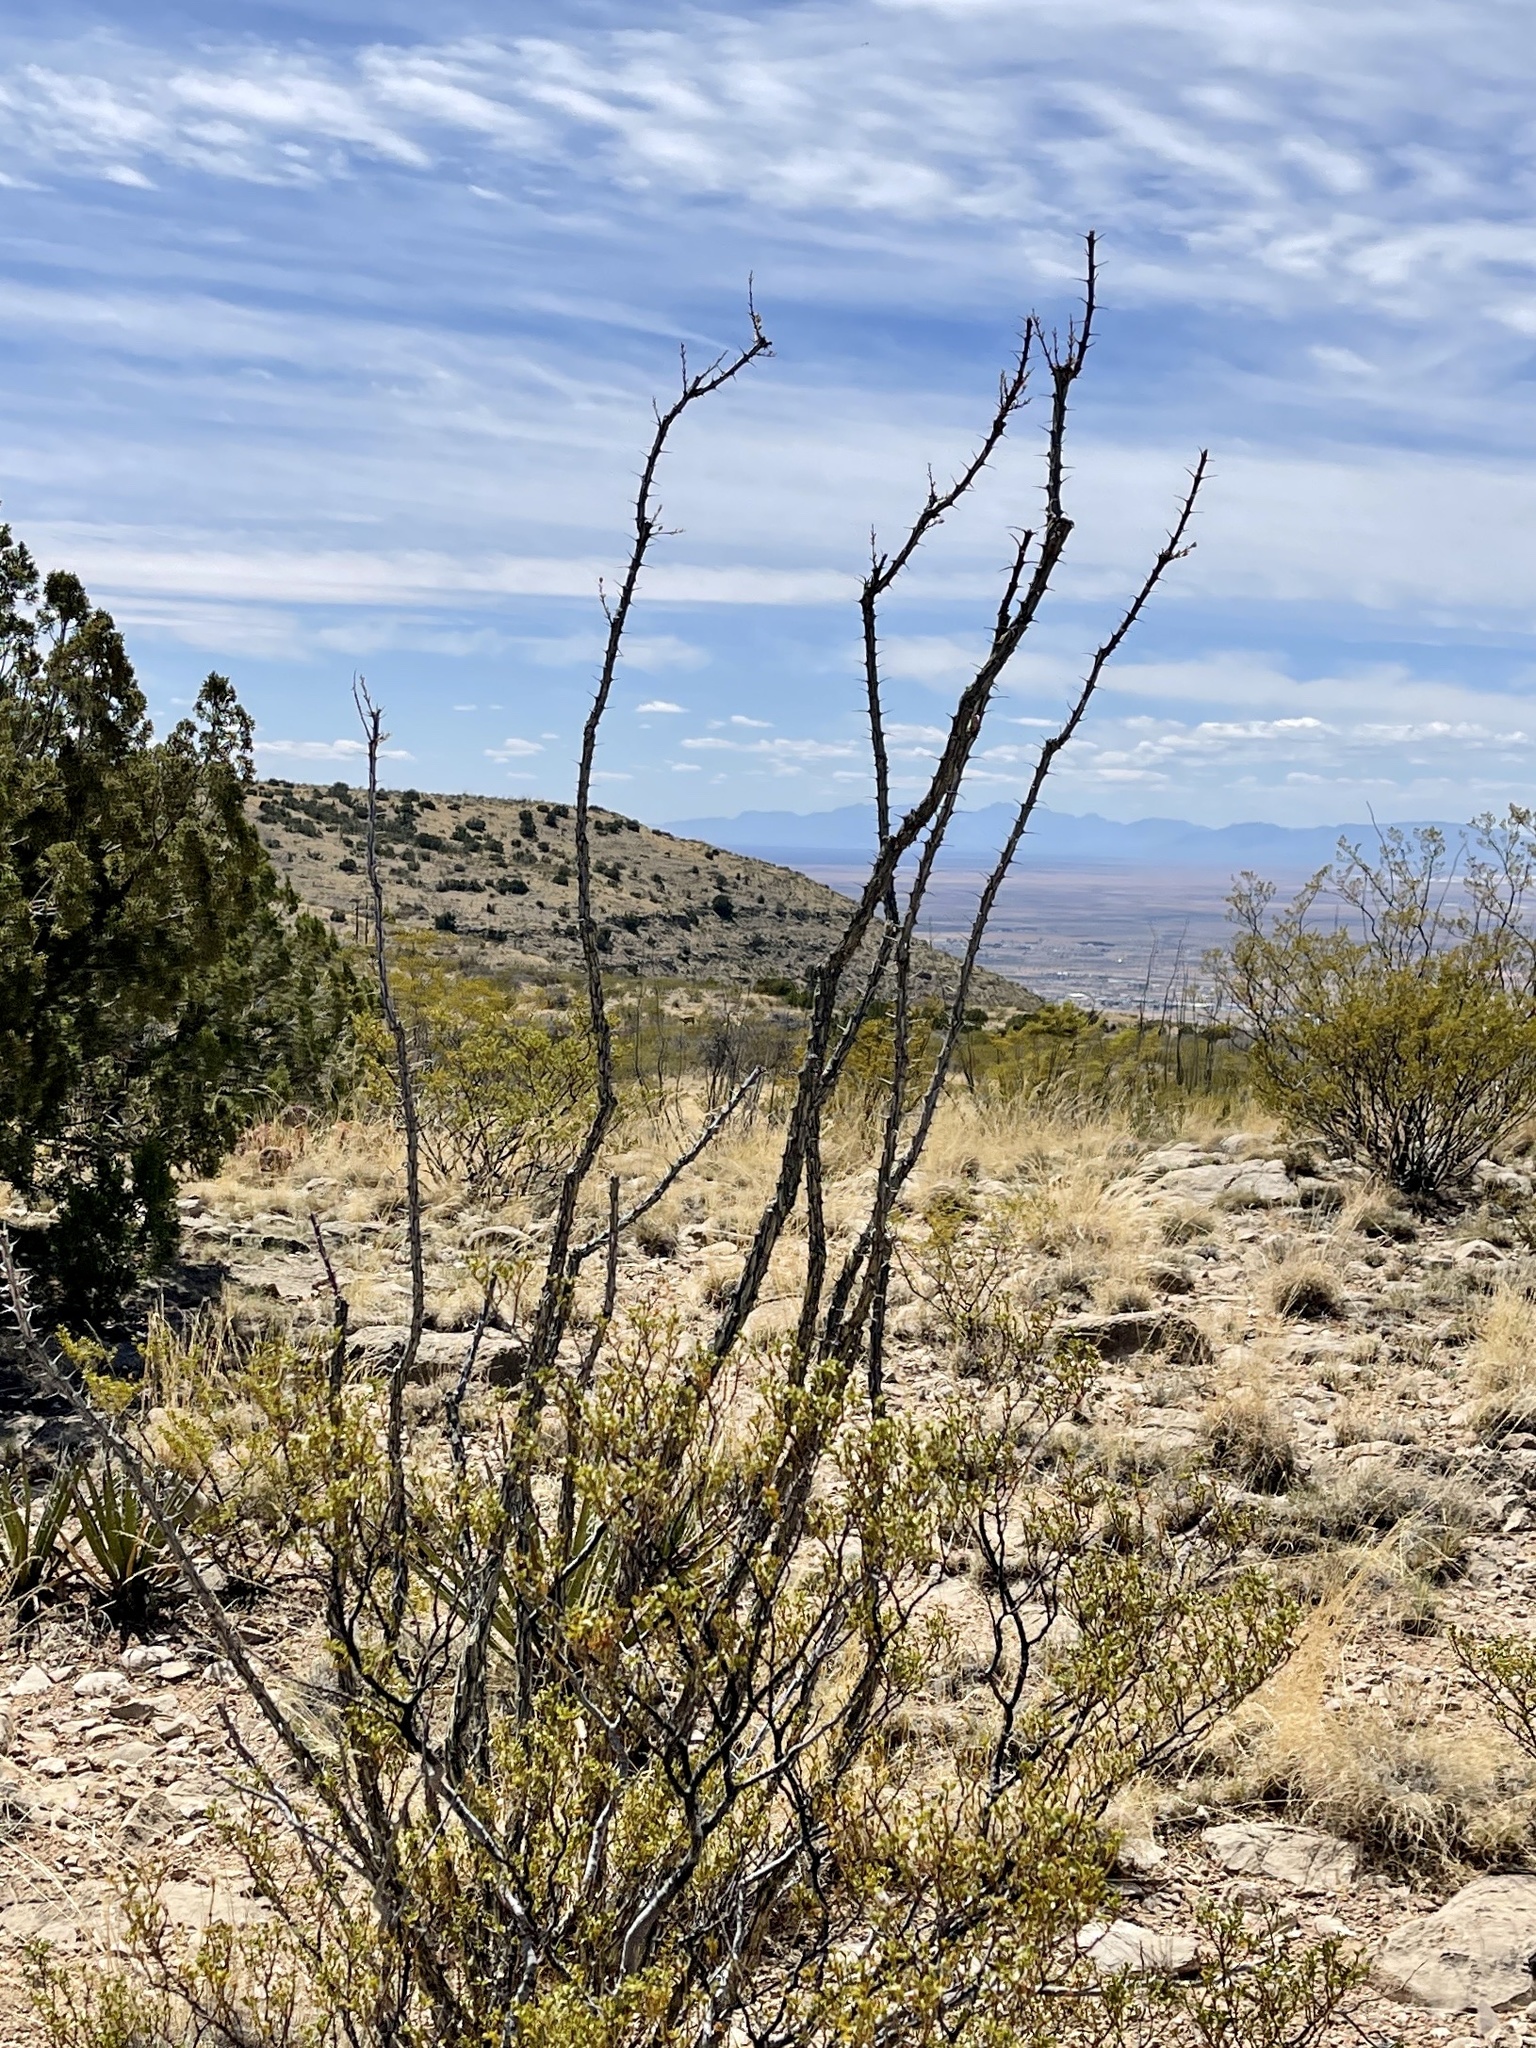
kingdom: Plantae
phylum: Tracheophyta
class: Magnoliopsida
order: Ericales
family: Fouquieriaceae
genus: Fouquieria
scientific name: Fouquieria splendens
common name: Vine-cactus
